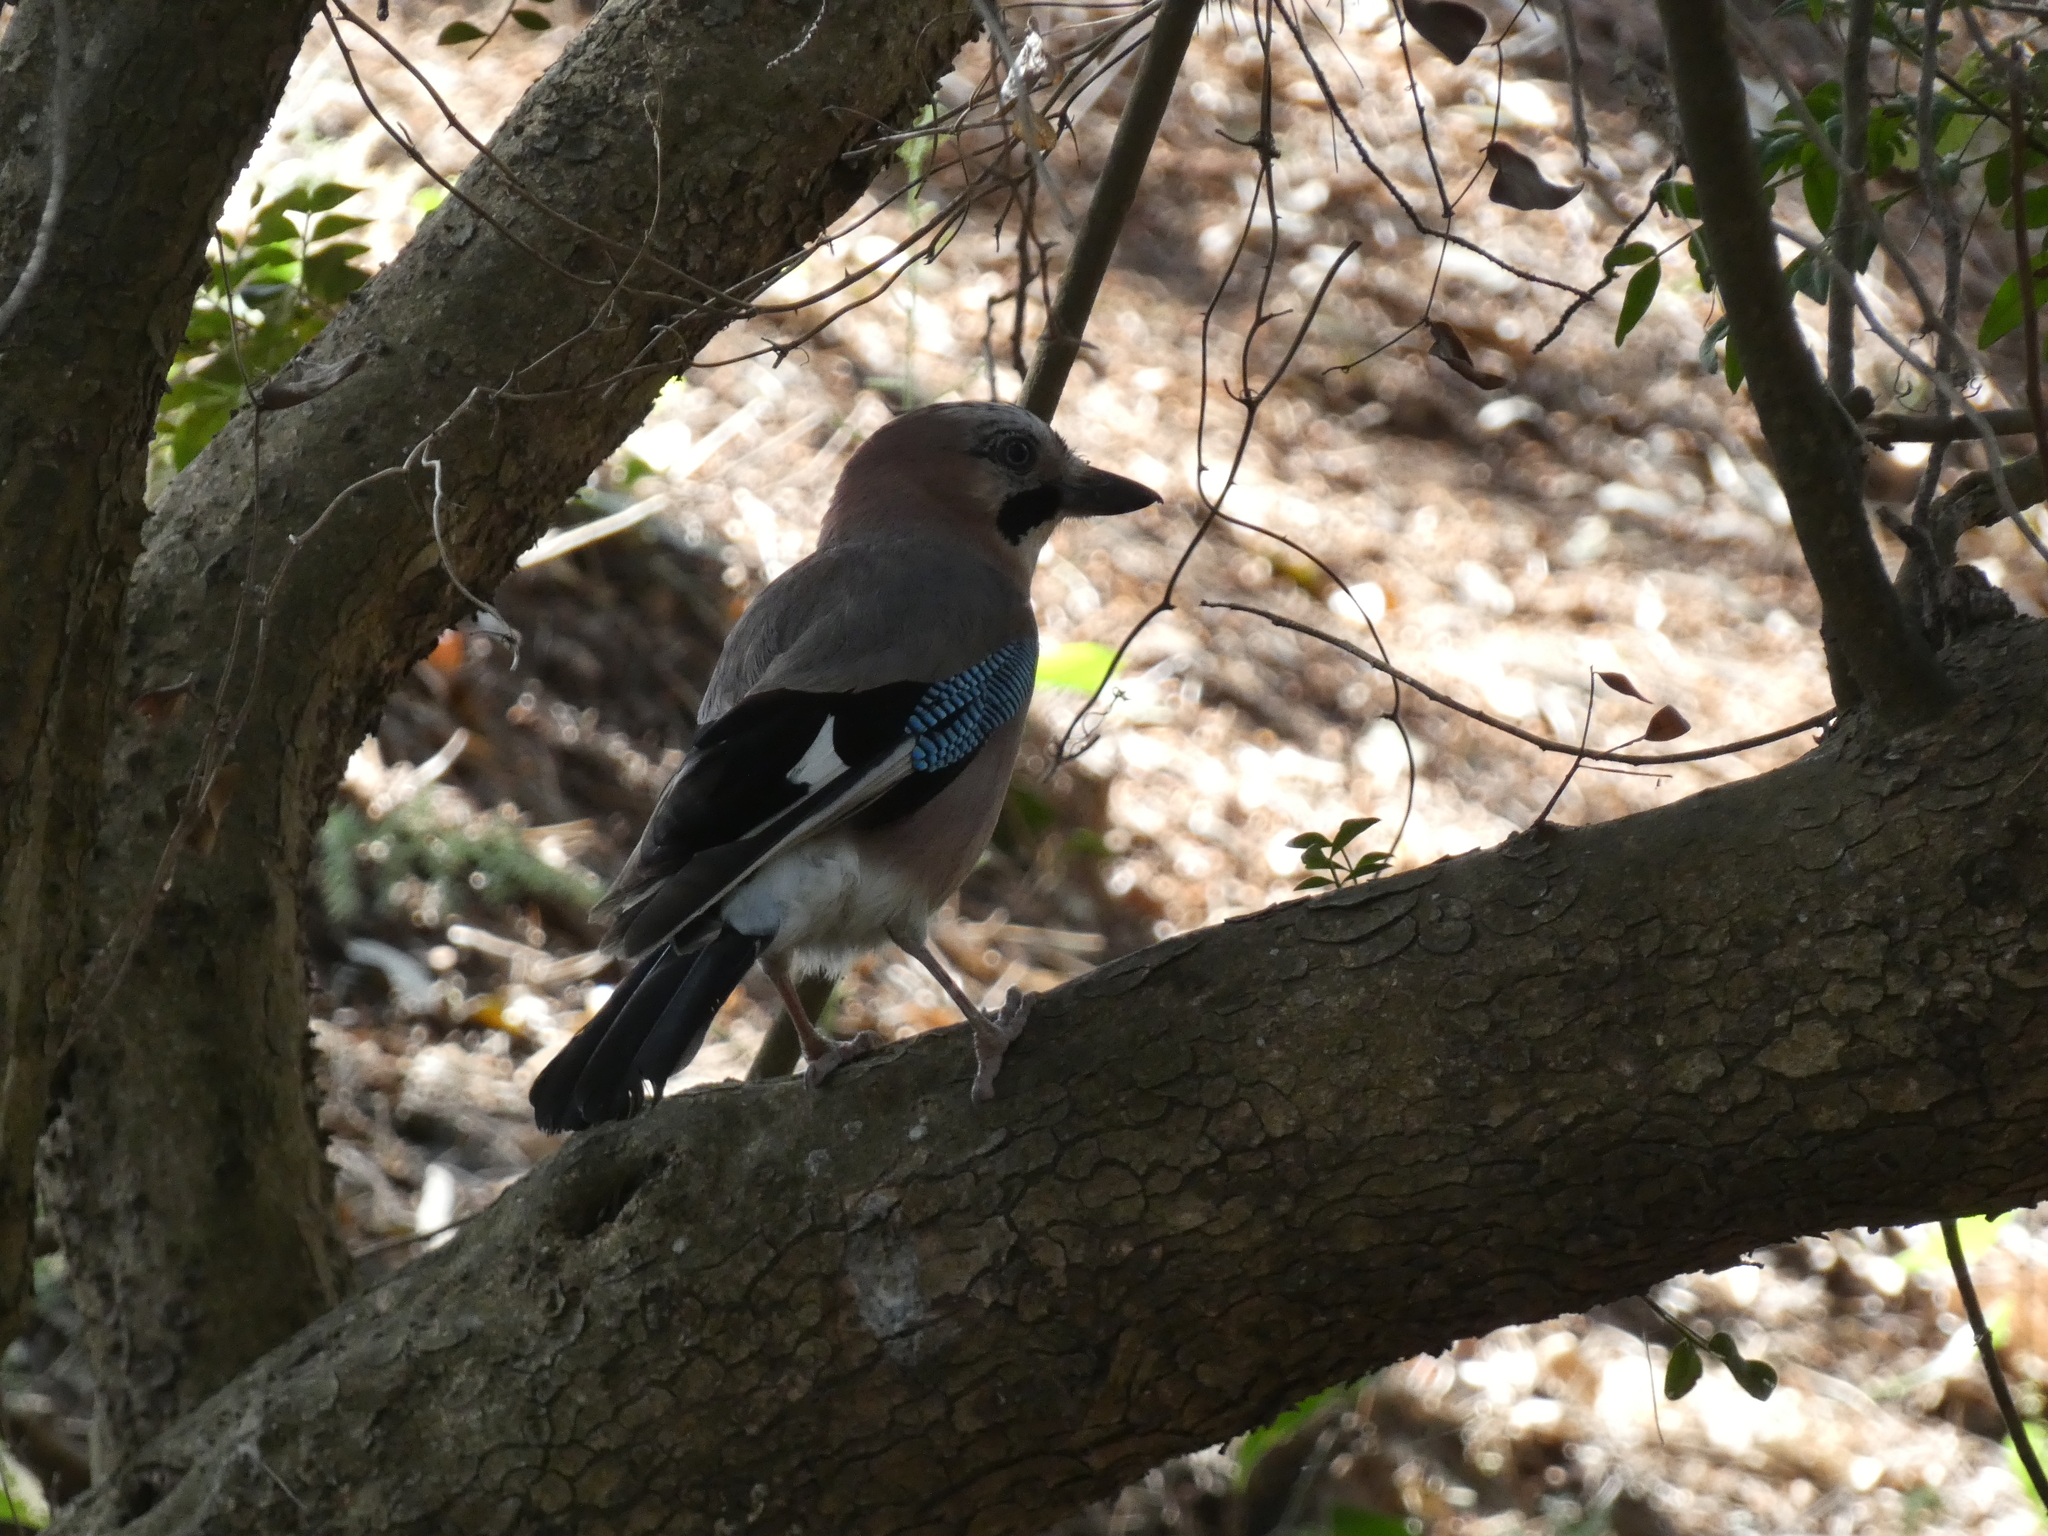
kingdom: Animalia
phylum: Chordata
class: Aves
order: Passeriformes
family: Corvidae
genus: Garrulus
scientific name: Garrulus glandarius
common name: Eurasian jay
